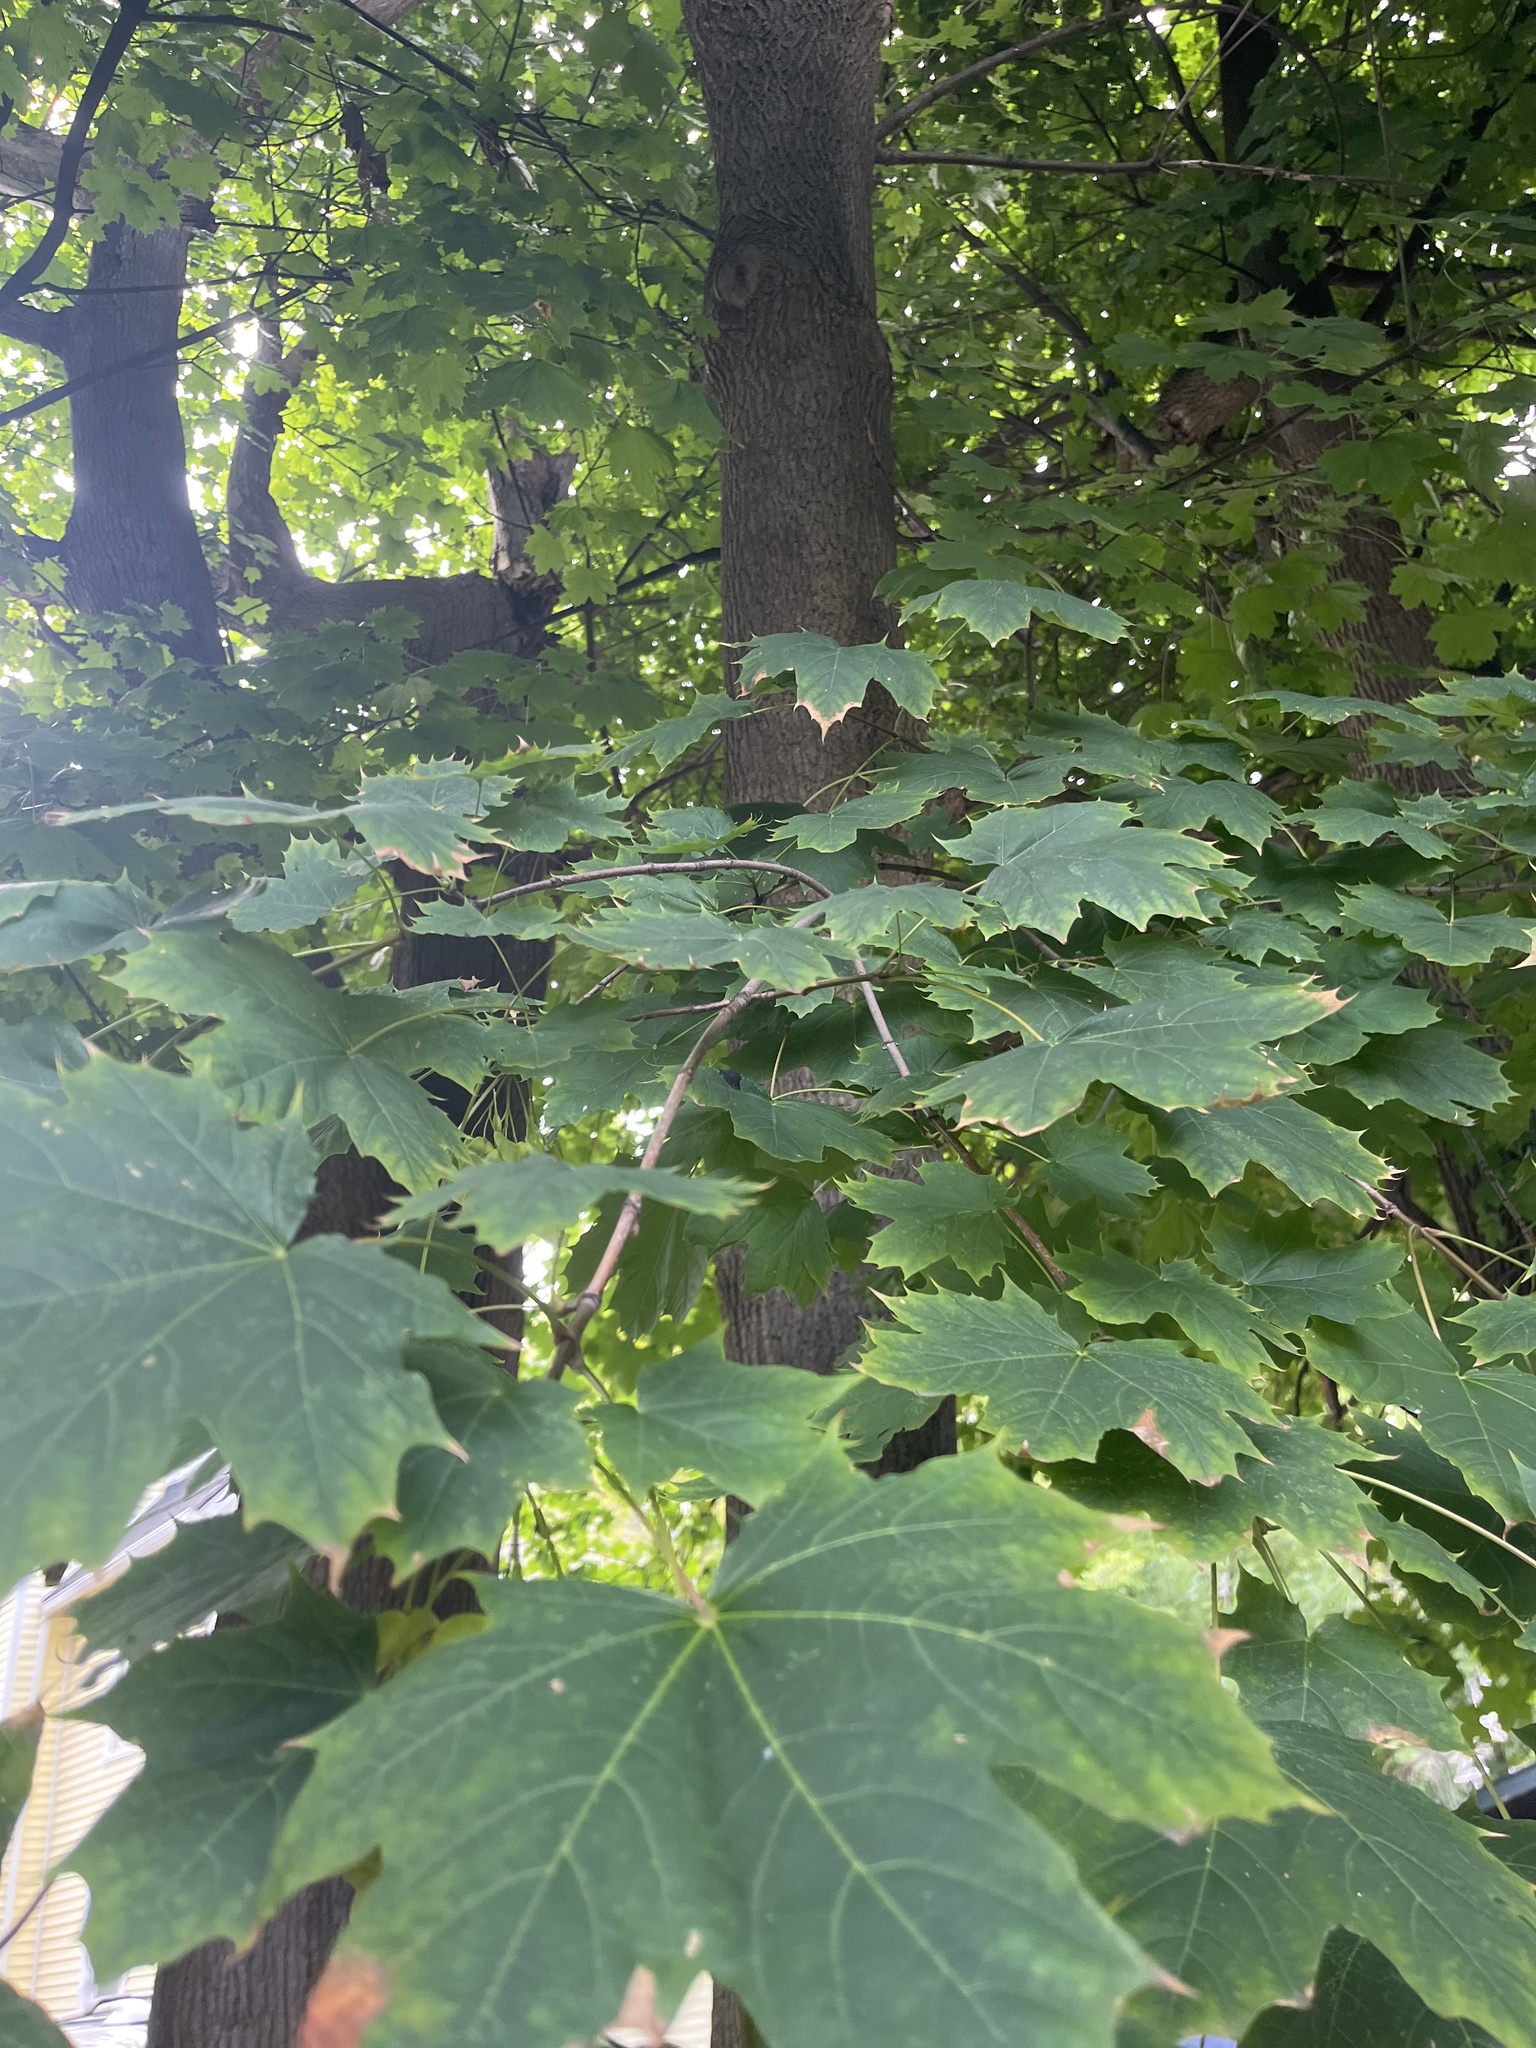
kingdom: Plantae
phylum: Tracheophyta
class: Magnoliopsida
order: Sapindales
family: Sapindaceae
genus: Acer
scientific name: Acer platanoides
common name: Norway maple
